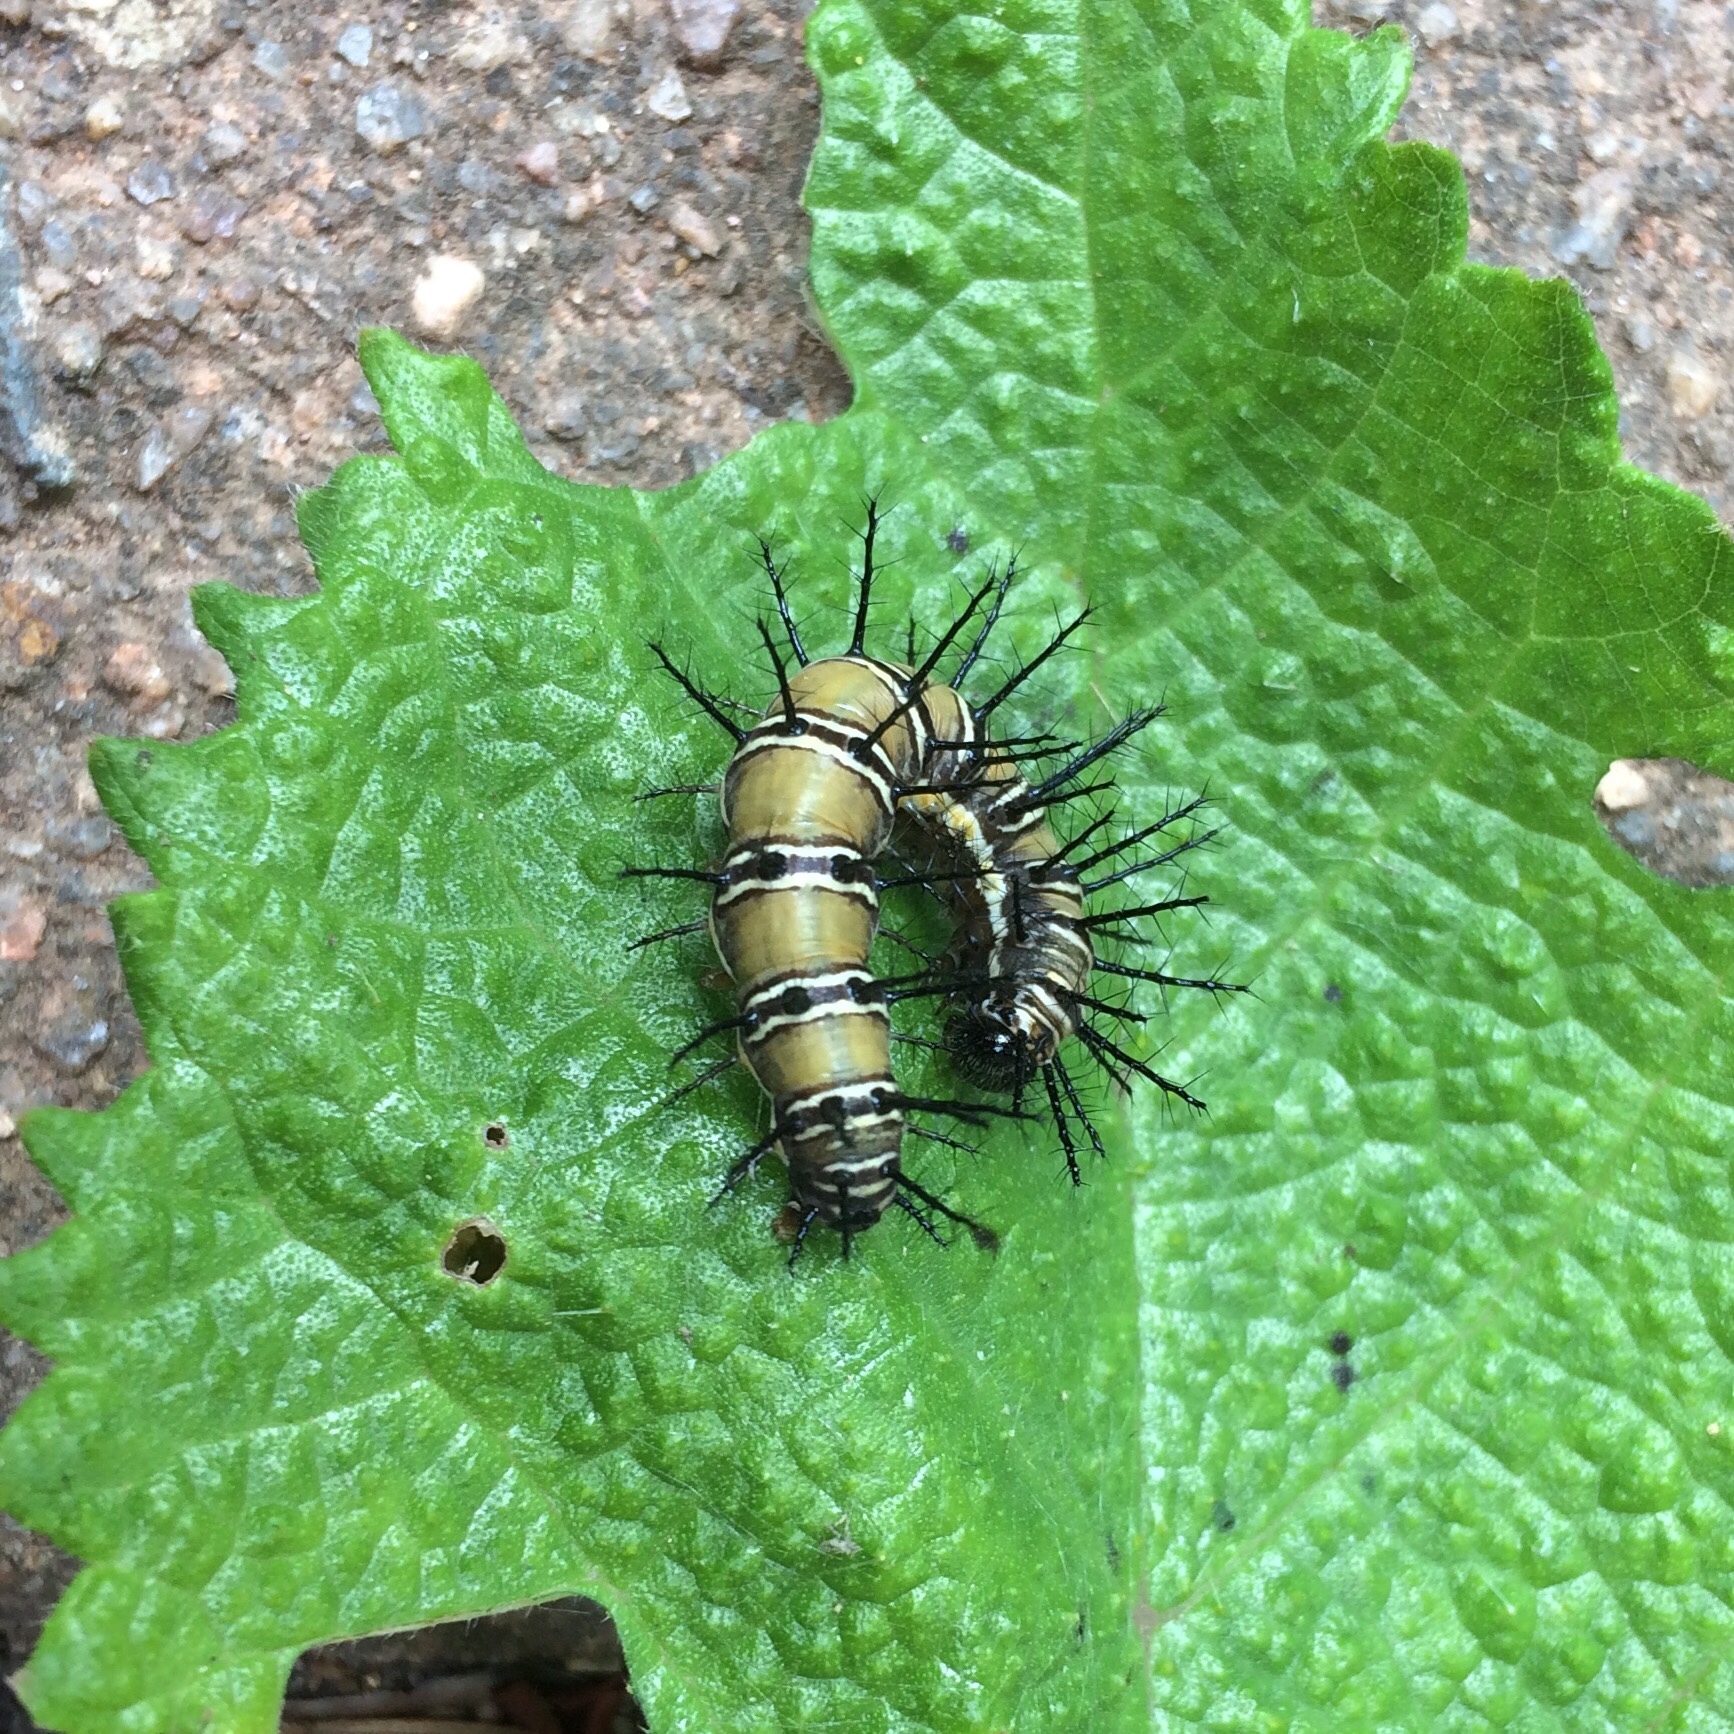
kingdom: Animalia
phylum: Arthropoda
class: Insecta
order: Lepidoptera
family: Nymphalidae
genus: Acraea
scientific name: Acraea esebria
